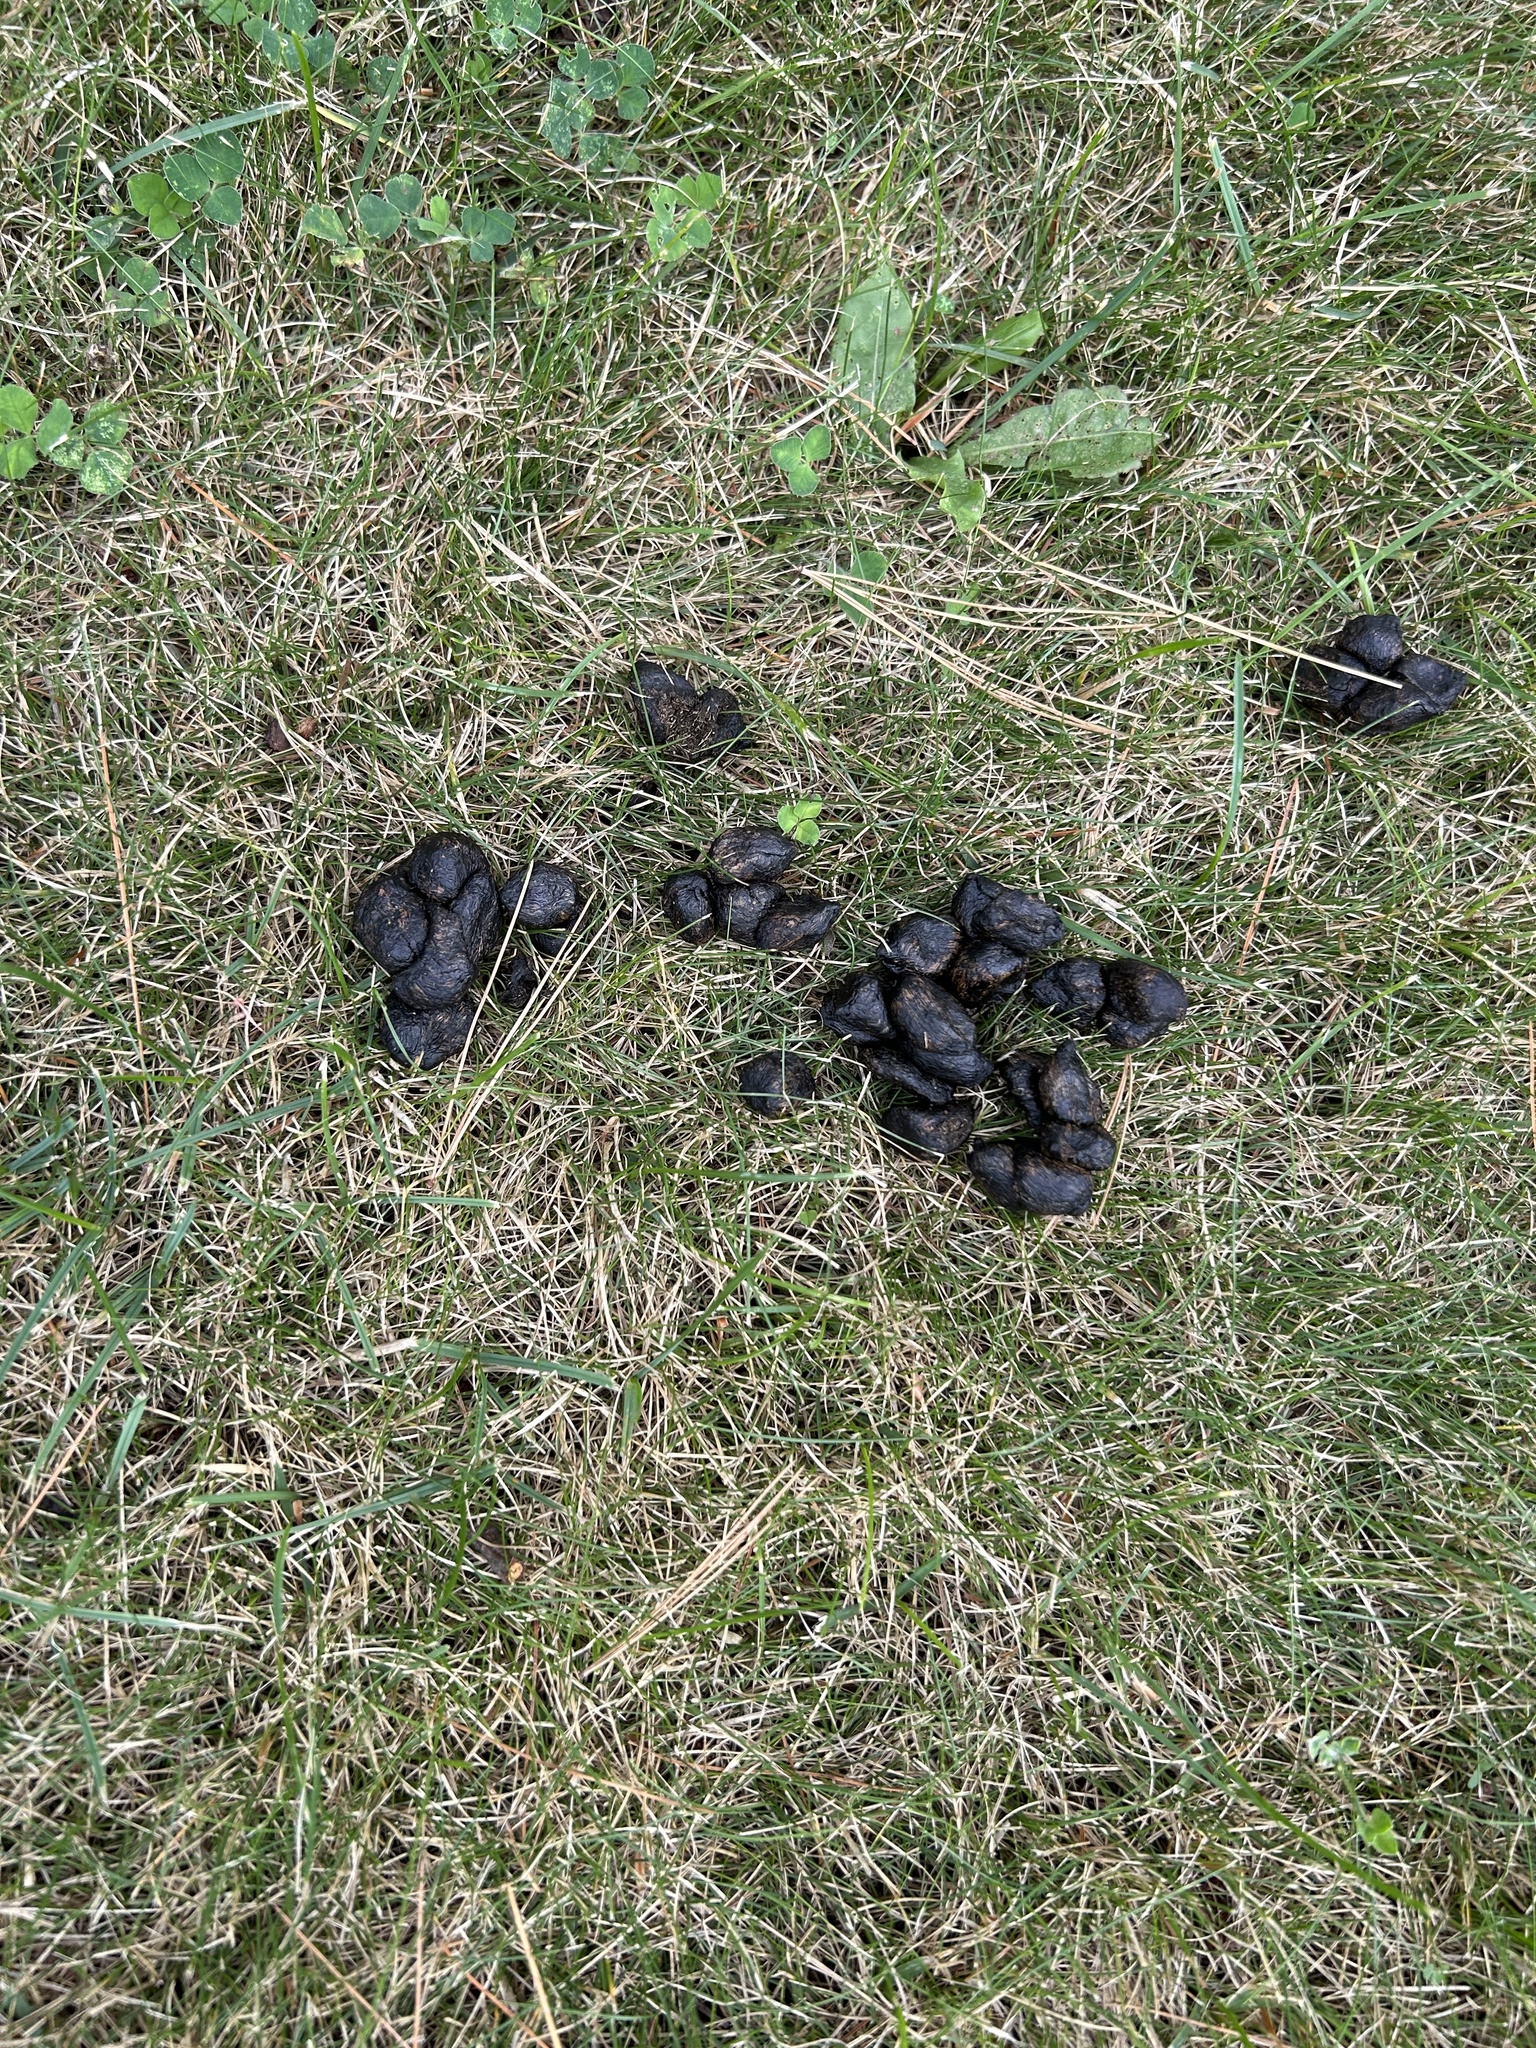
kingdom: Animalia
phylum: Chordata
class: Mammalia
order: Artiodactyla
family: Cervidae
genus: Odocoileus
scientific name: Odocoileus virginianus
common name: White-tailed deer
